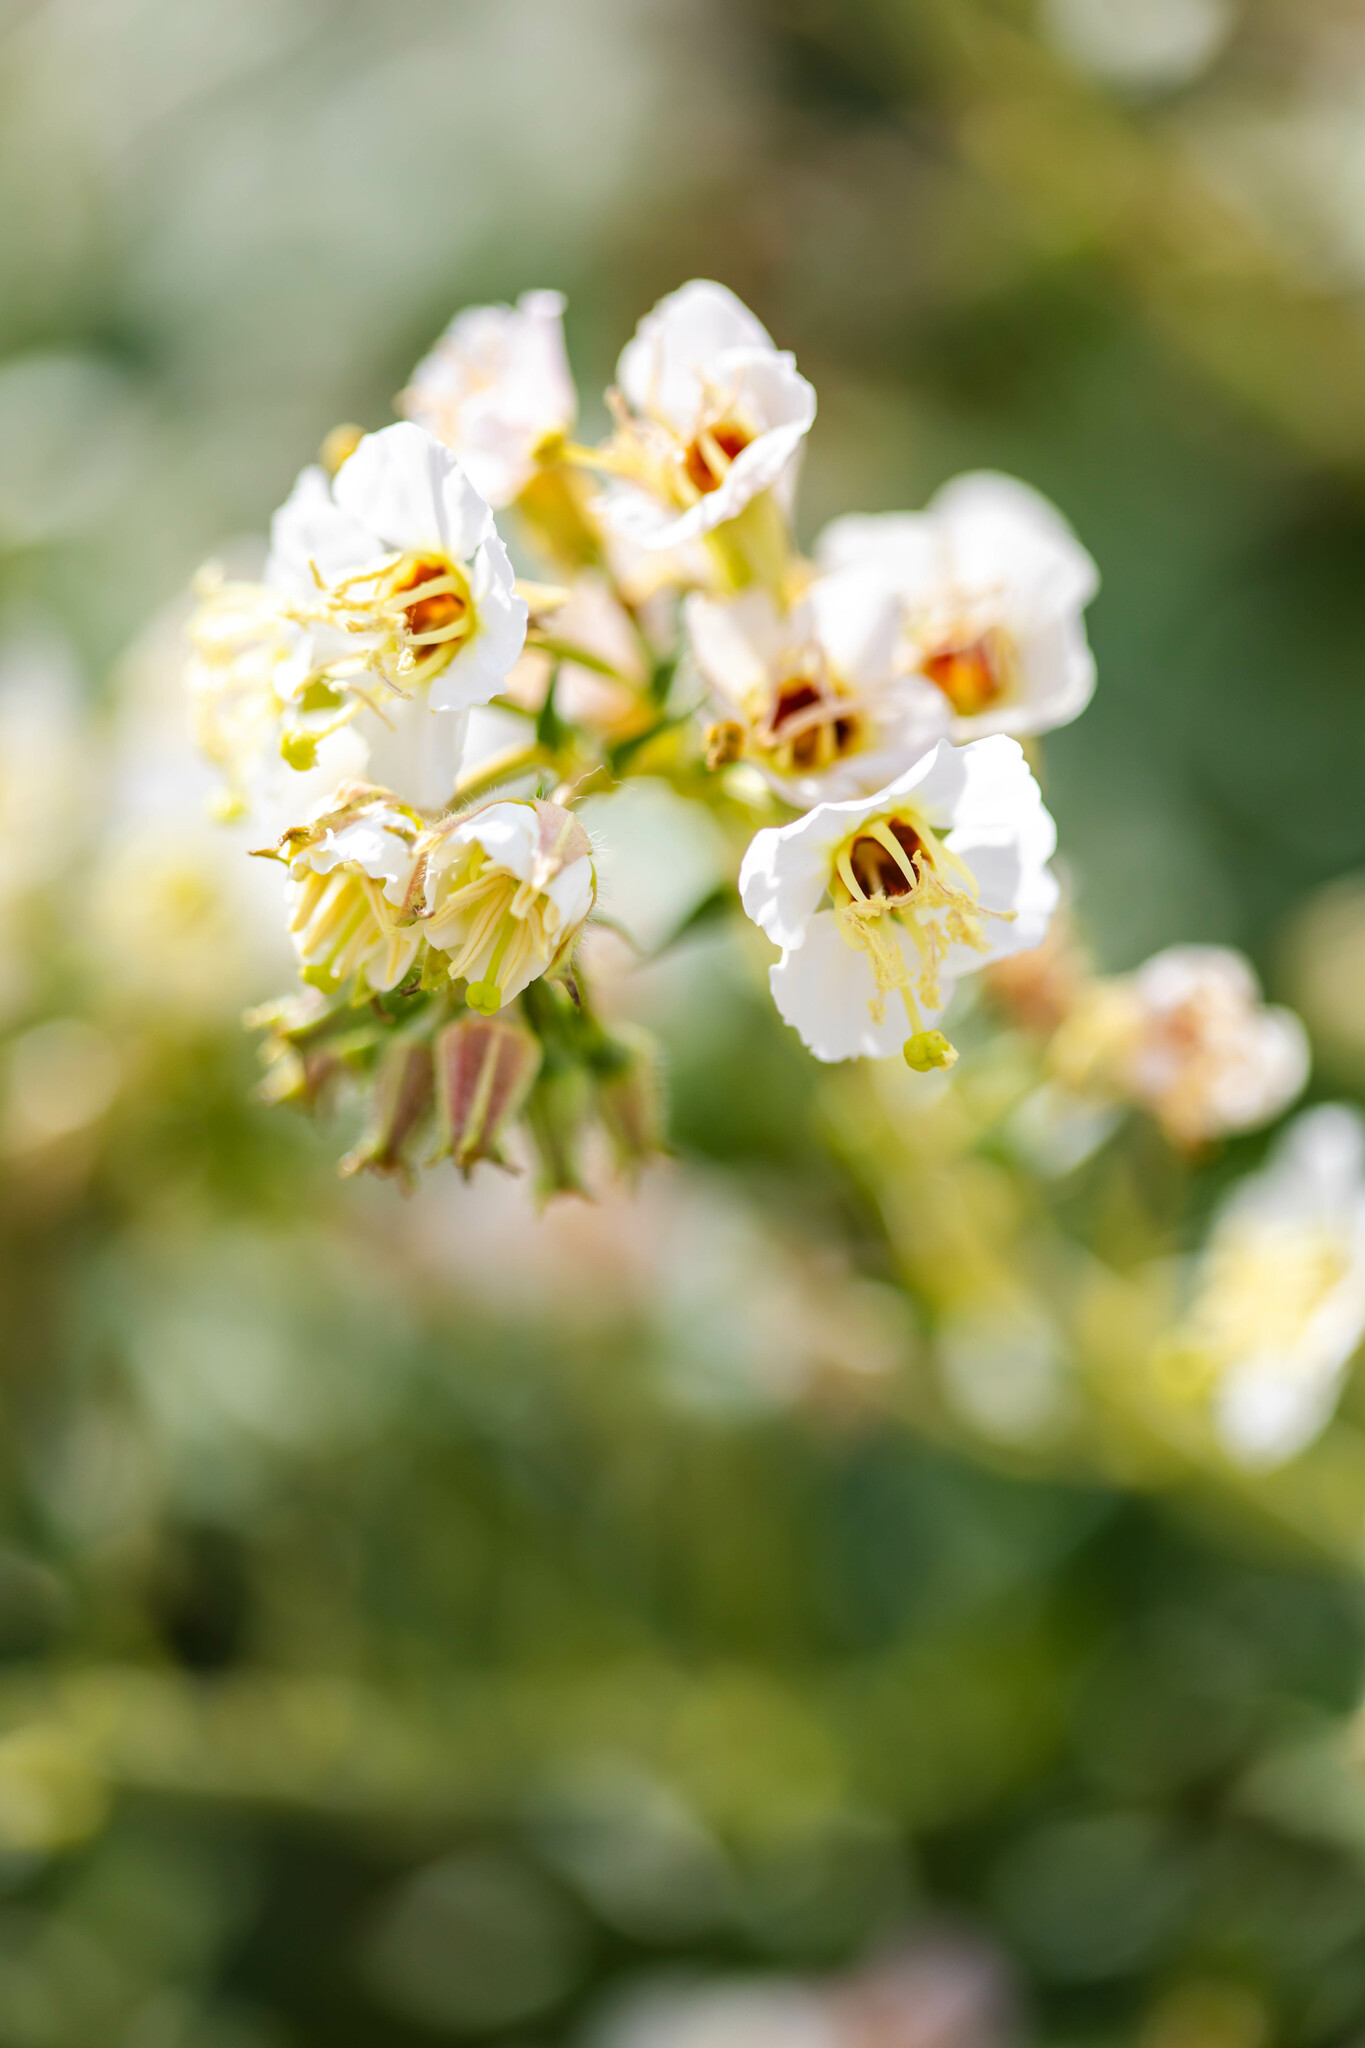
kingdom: Plantae
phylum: Tracheophyta
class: Magnoliopsida
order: Myrtales
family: Onagraceae
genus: Chylismia
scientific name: Chylismia claviformis
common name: Browneyes
